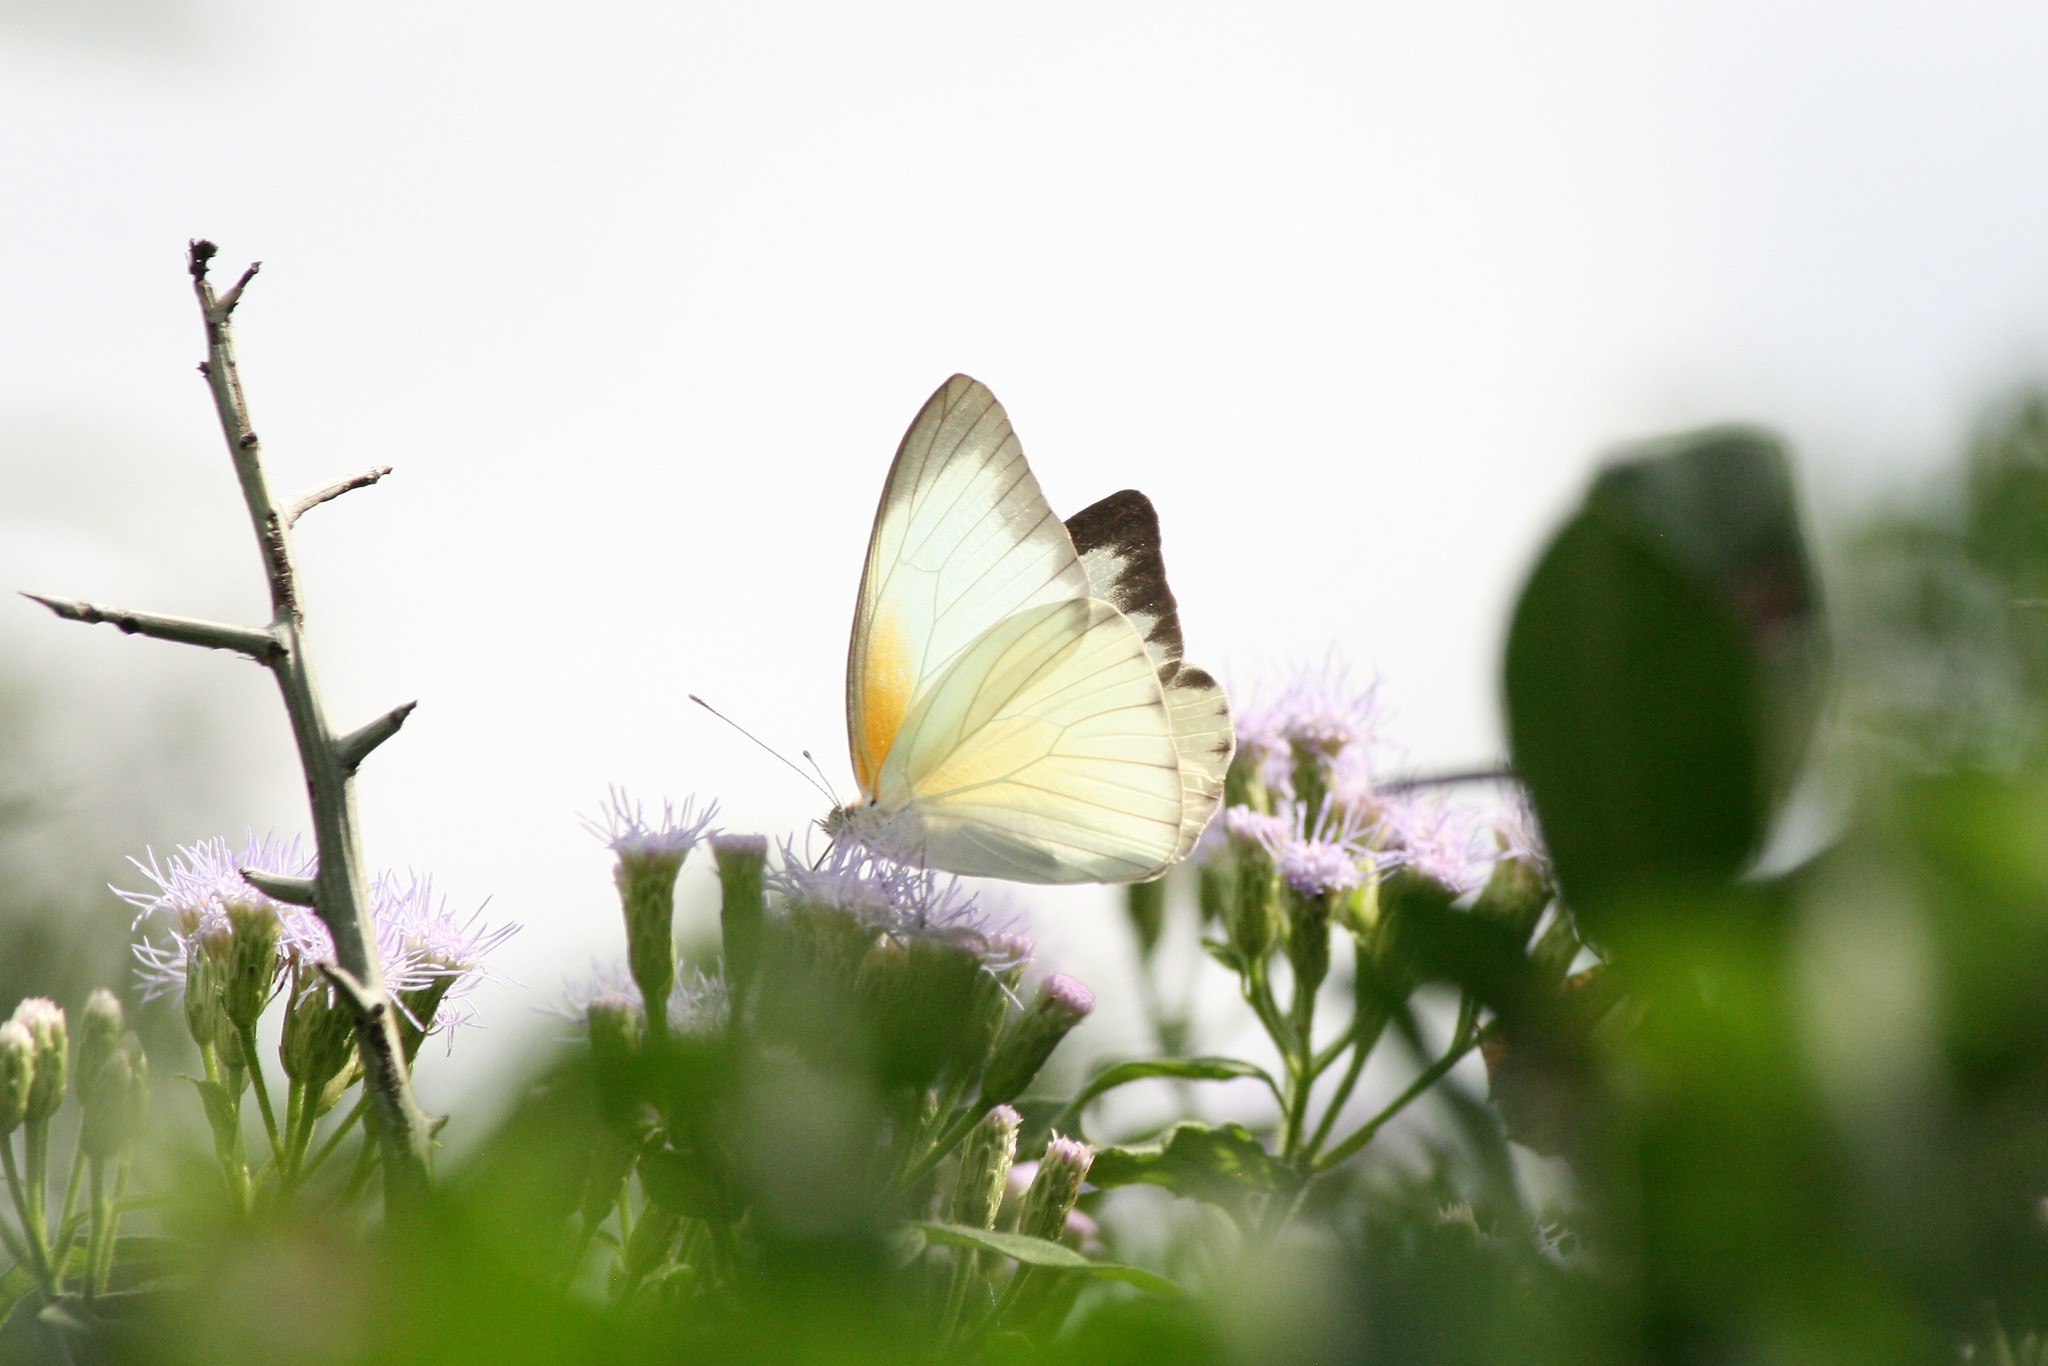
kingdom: Animalia
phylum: Arthropoda
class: Insecta
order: Lepidoptera
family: Pieridae
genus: Glutophrissa
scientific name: Glutophrissa drusilla
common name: Florida white
